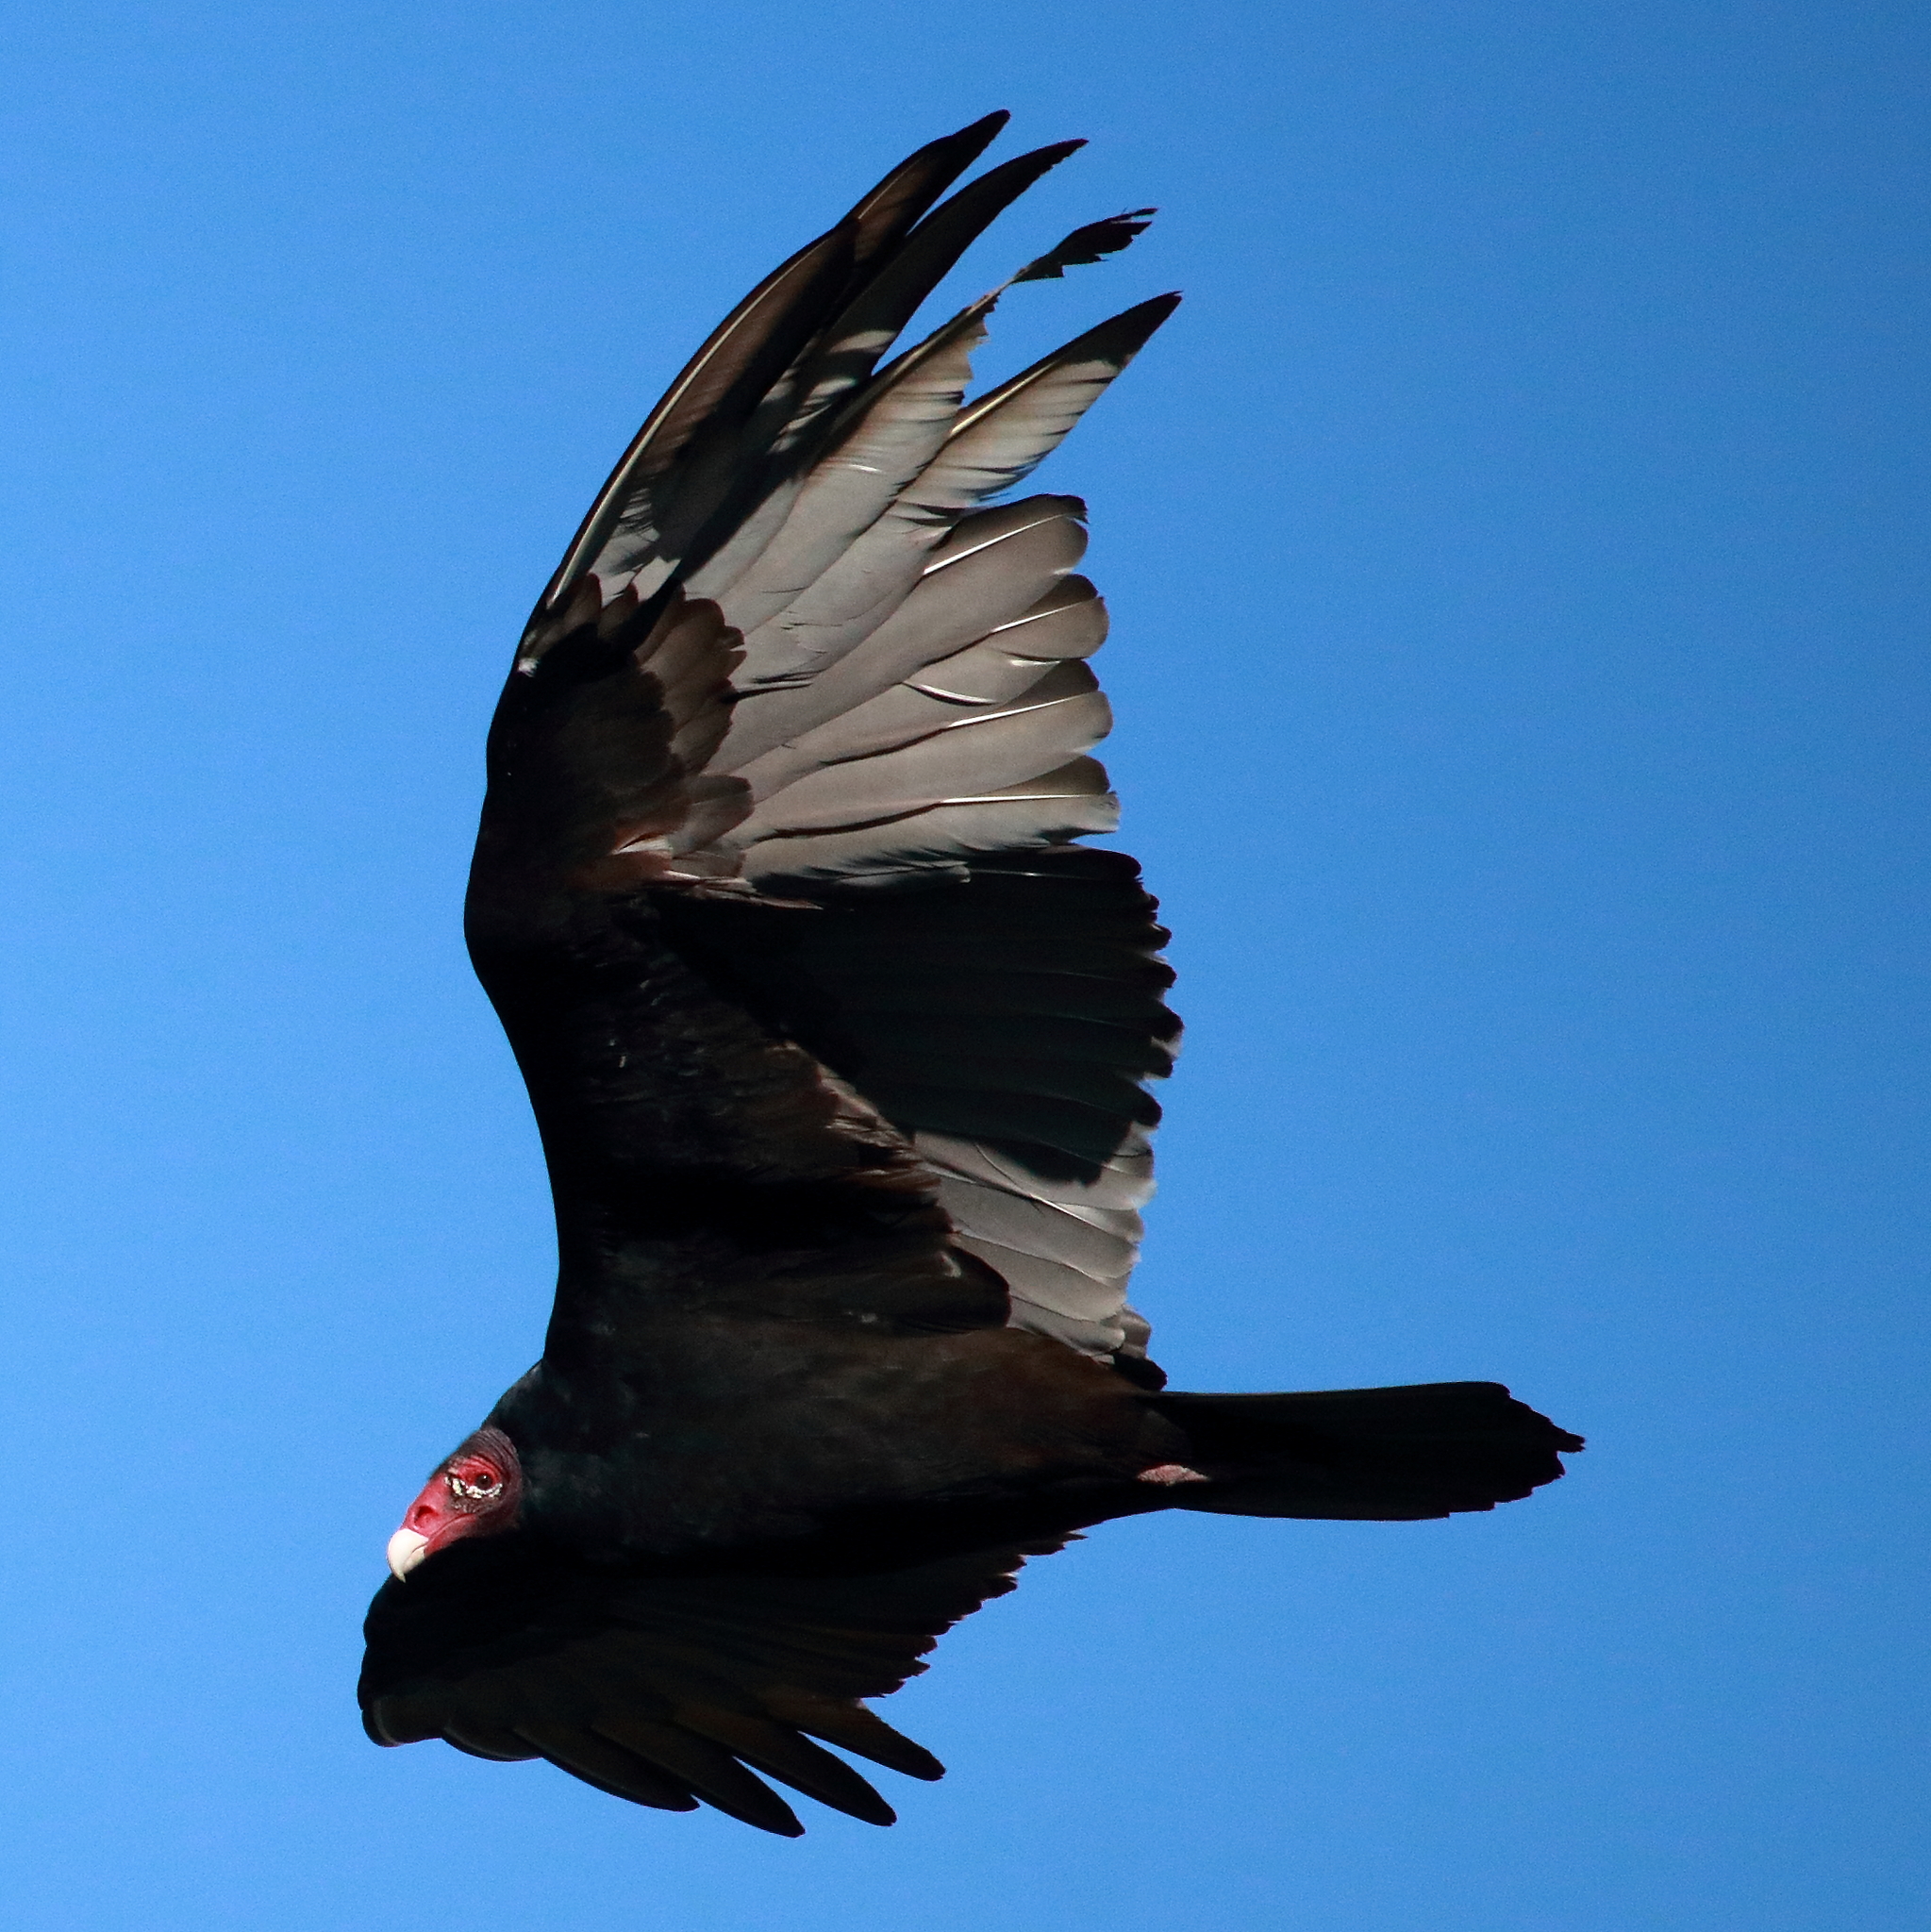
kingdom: Animalia
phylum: Chordata
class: Aves
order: Accipitriformes
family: Cathartidae
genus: Cathartes
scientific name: Cathartes aura
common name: Turkey vulture
